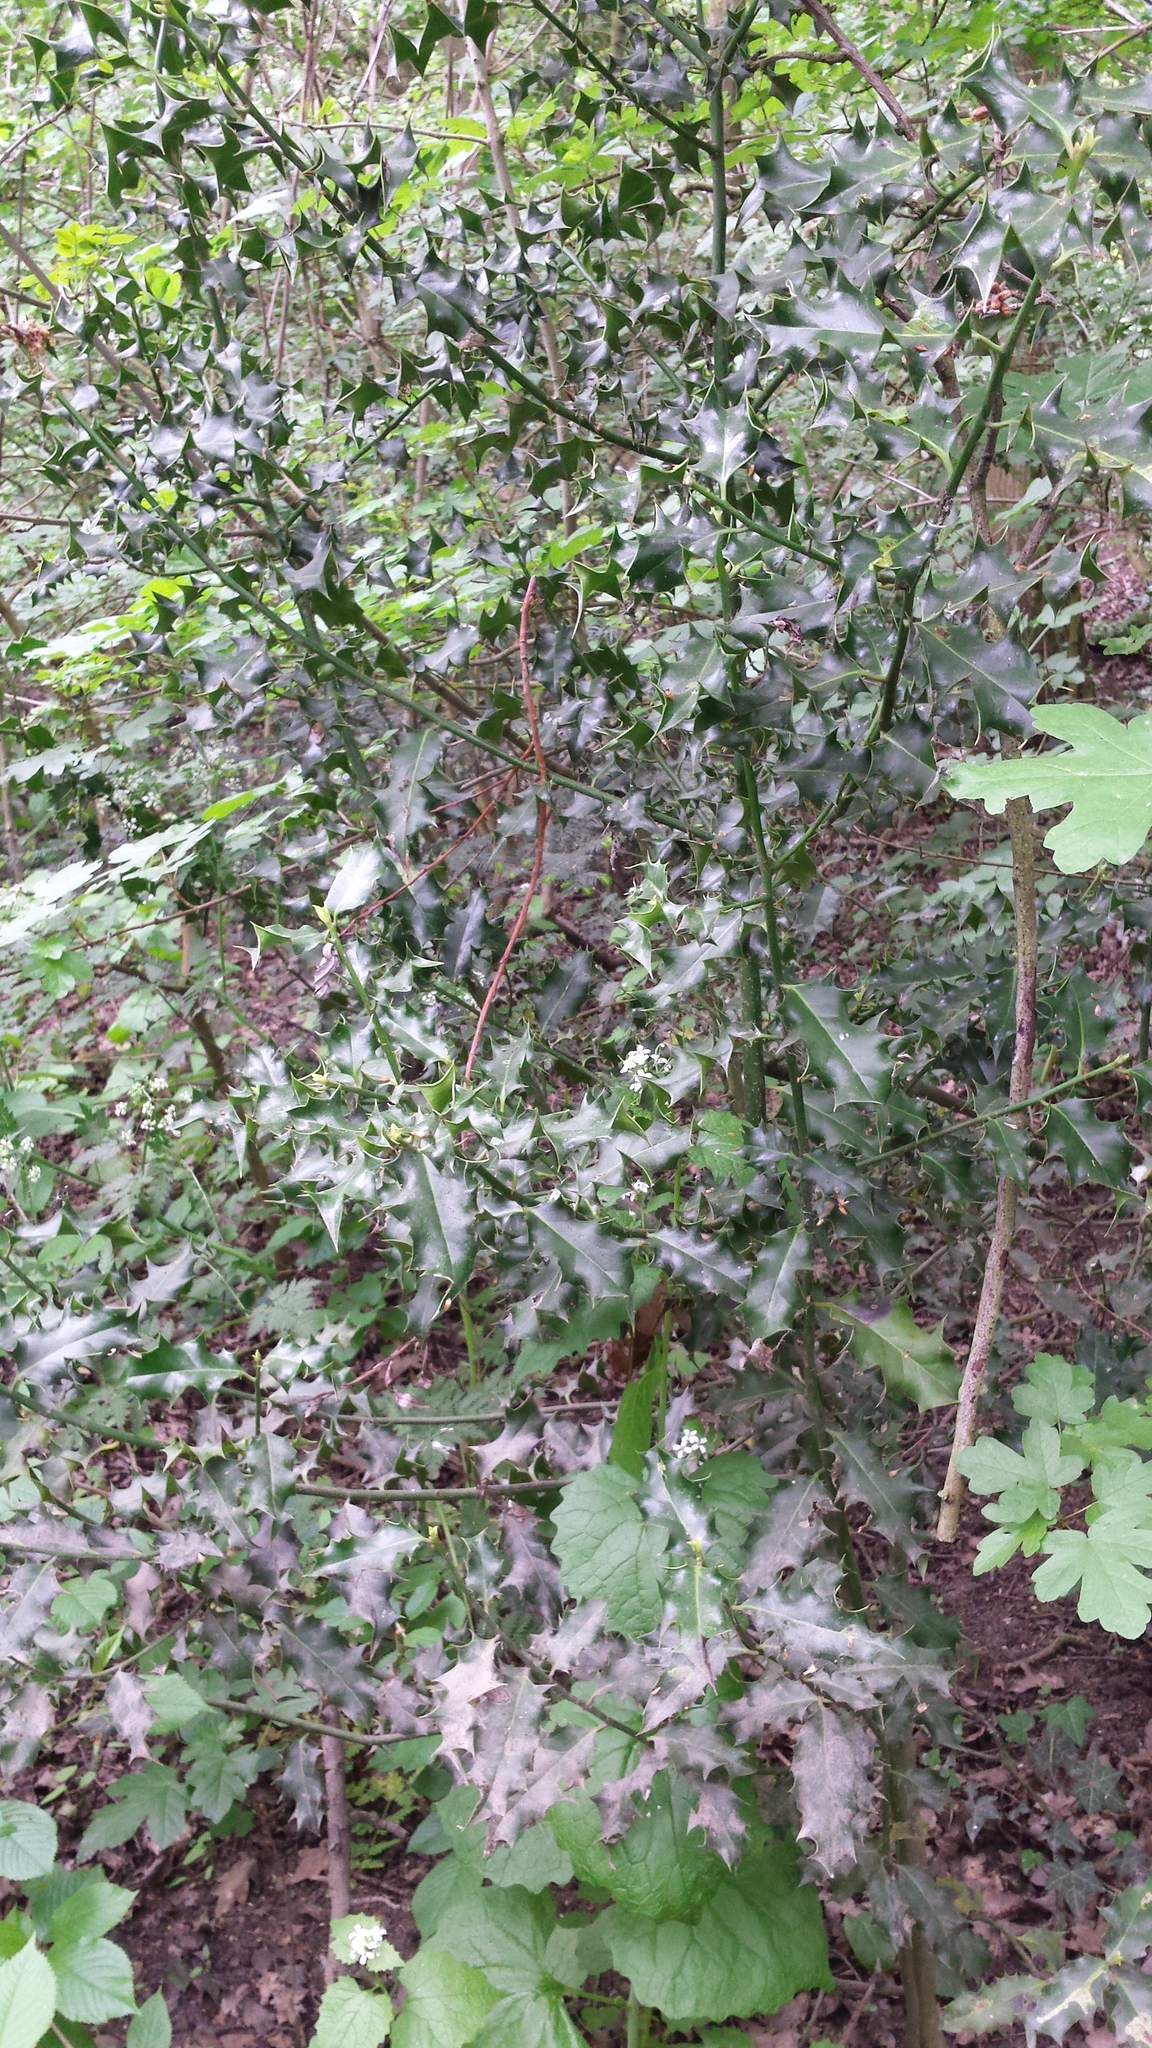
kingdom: Plantae
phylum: Tracheophyta
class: Magnoliopsida
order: Aquifoliales
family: Aquifoliaceae
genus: Ilex
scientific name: Ilex aquifolium
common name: English holly
